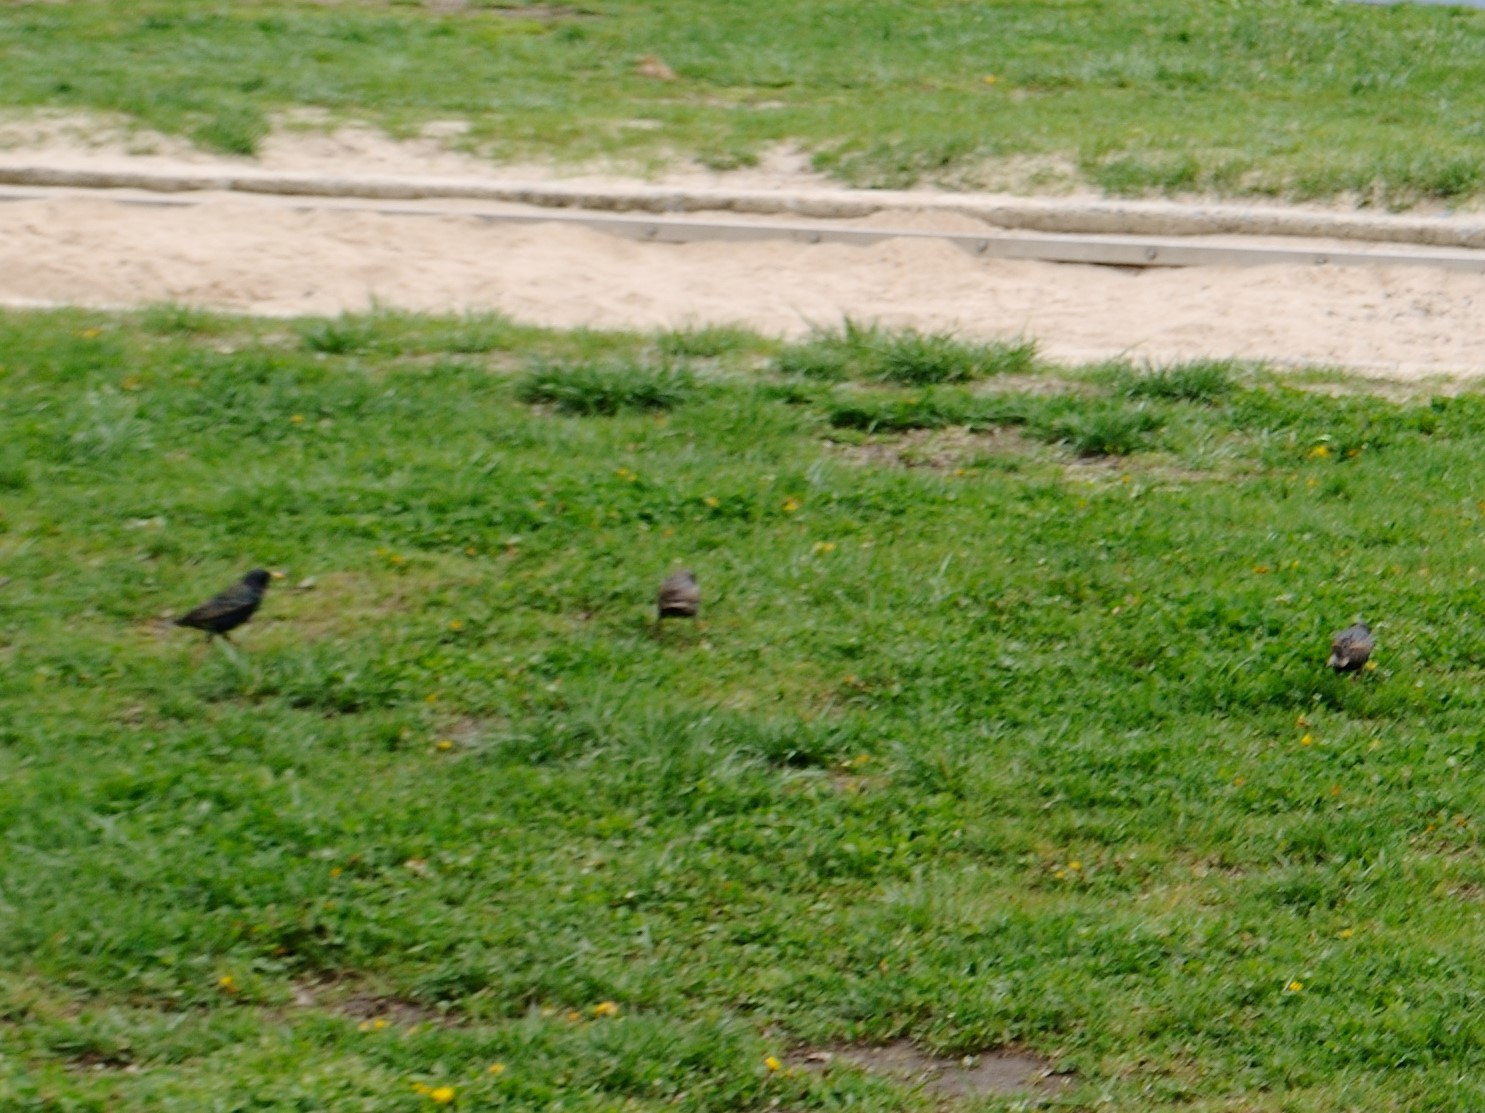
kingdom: Animalia
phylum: Chordata
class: Aves
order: Passeriformes
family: Sturnidae
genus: Sturnus
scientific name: Sturnus vulgaris
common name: Common starling
